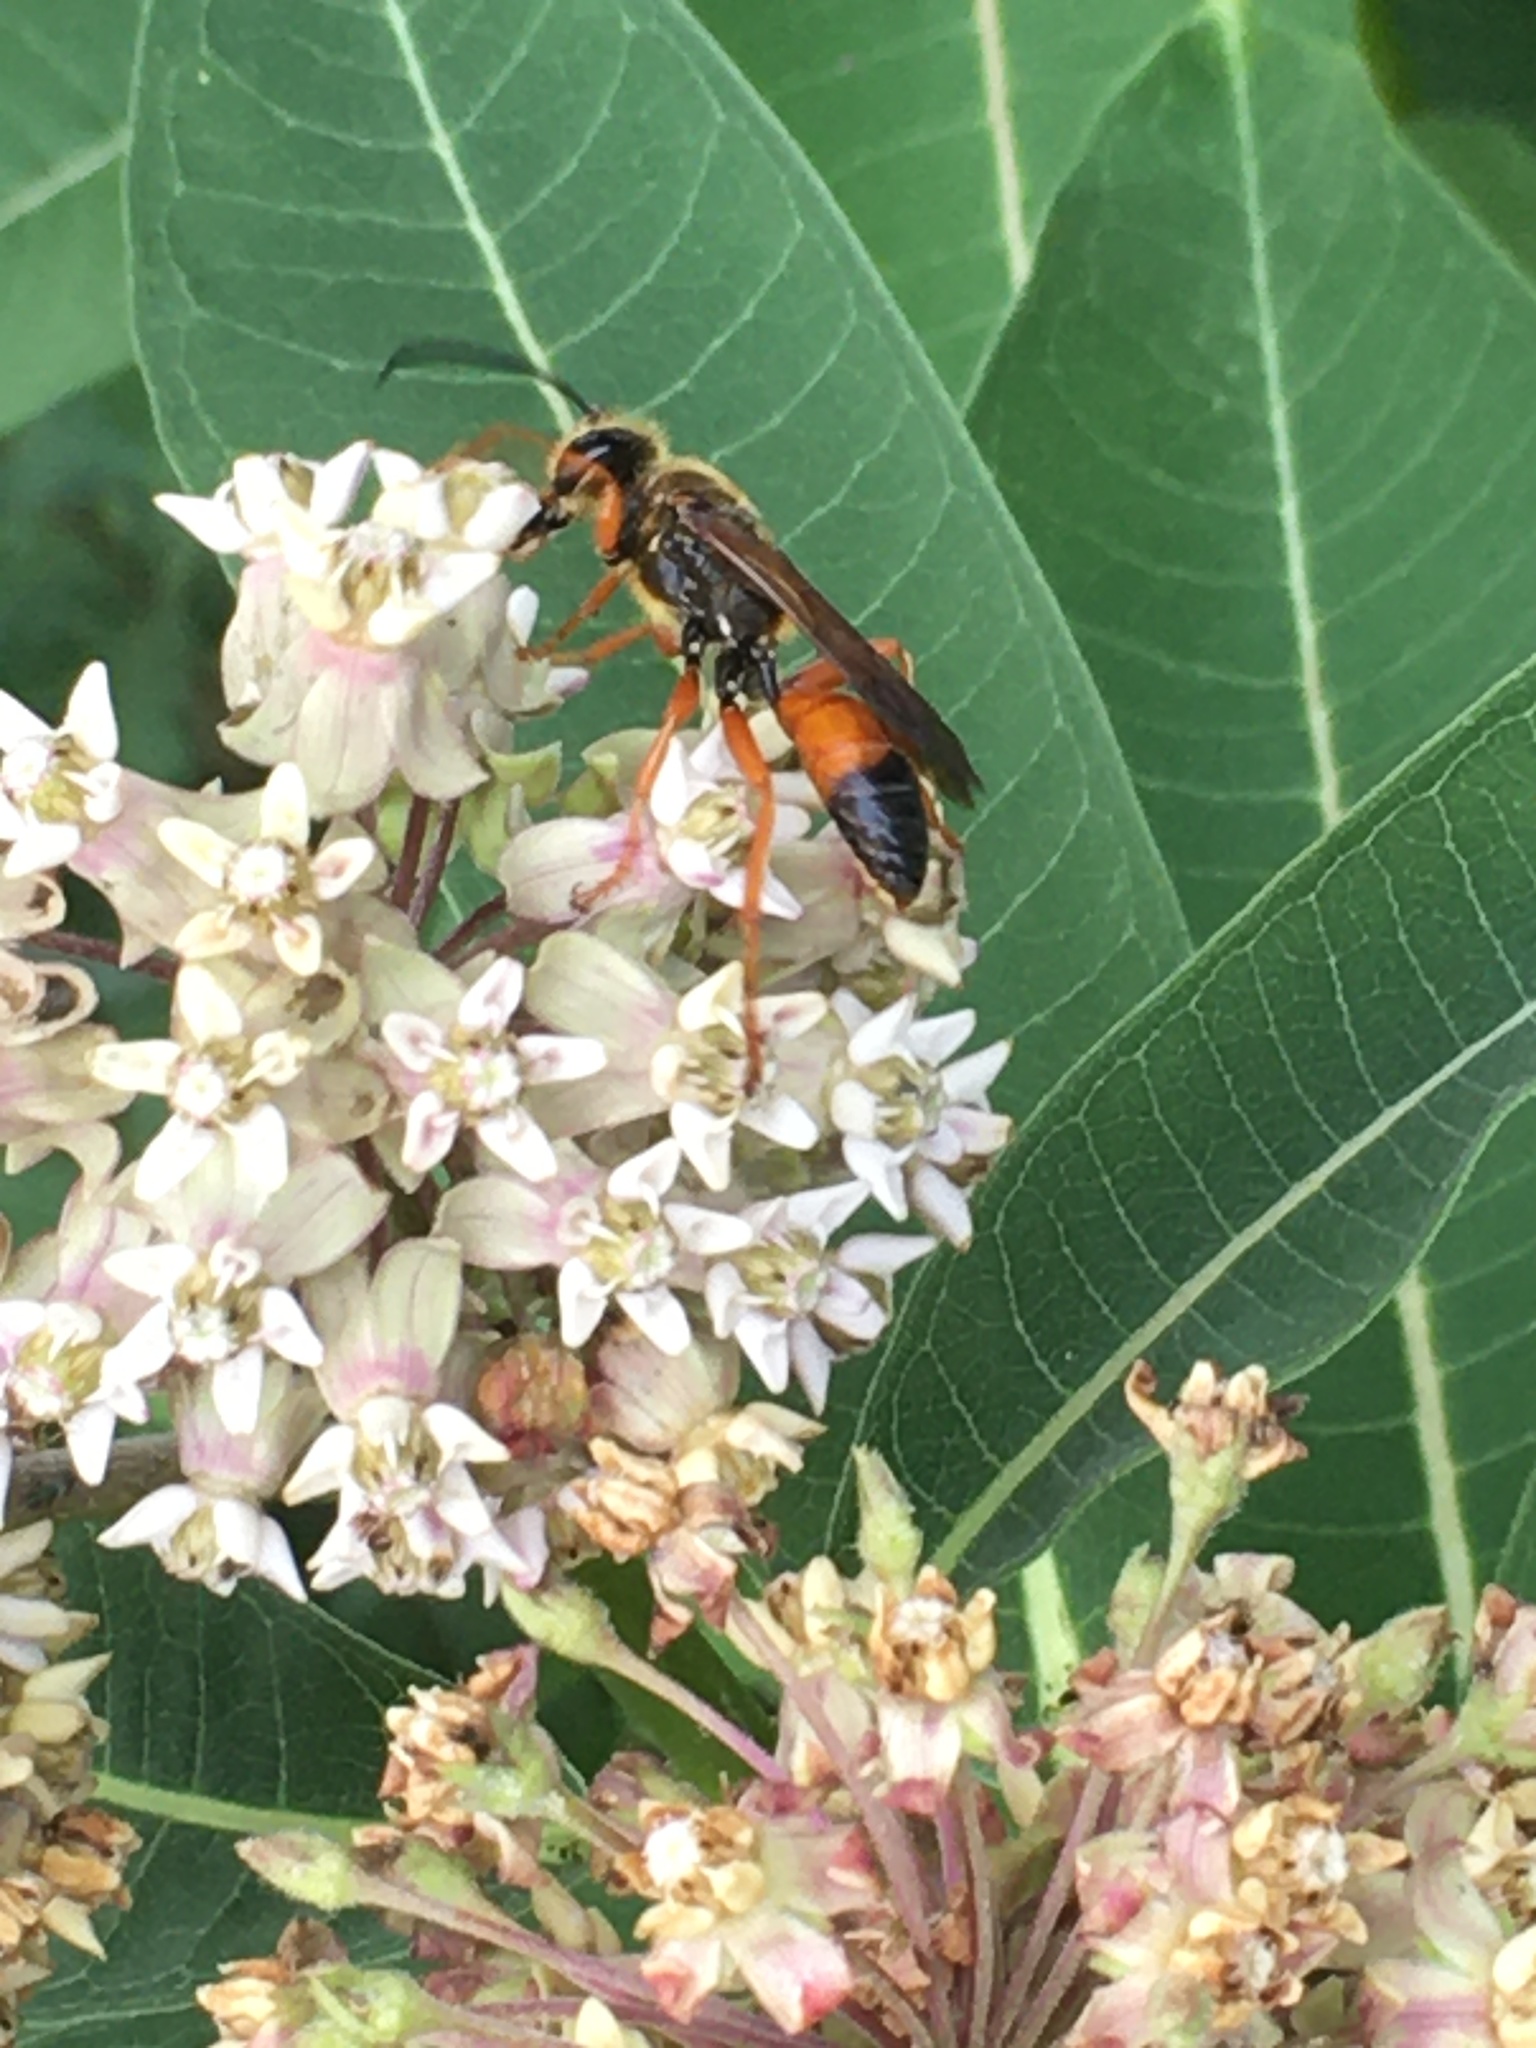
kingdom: Animalia
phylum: Arthropoda
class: Insecta
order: Hymenoptera
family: Sphecidae
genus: Sphex
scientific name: Sphex ichneumoneus
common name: Great golden digger wasp
